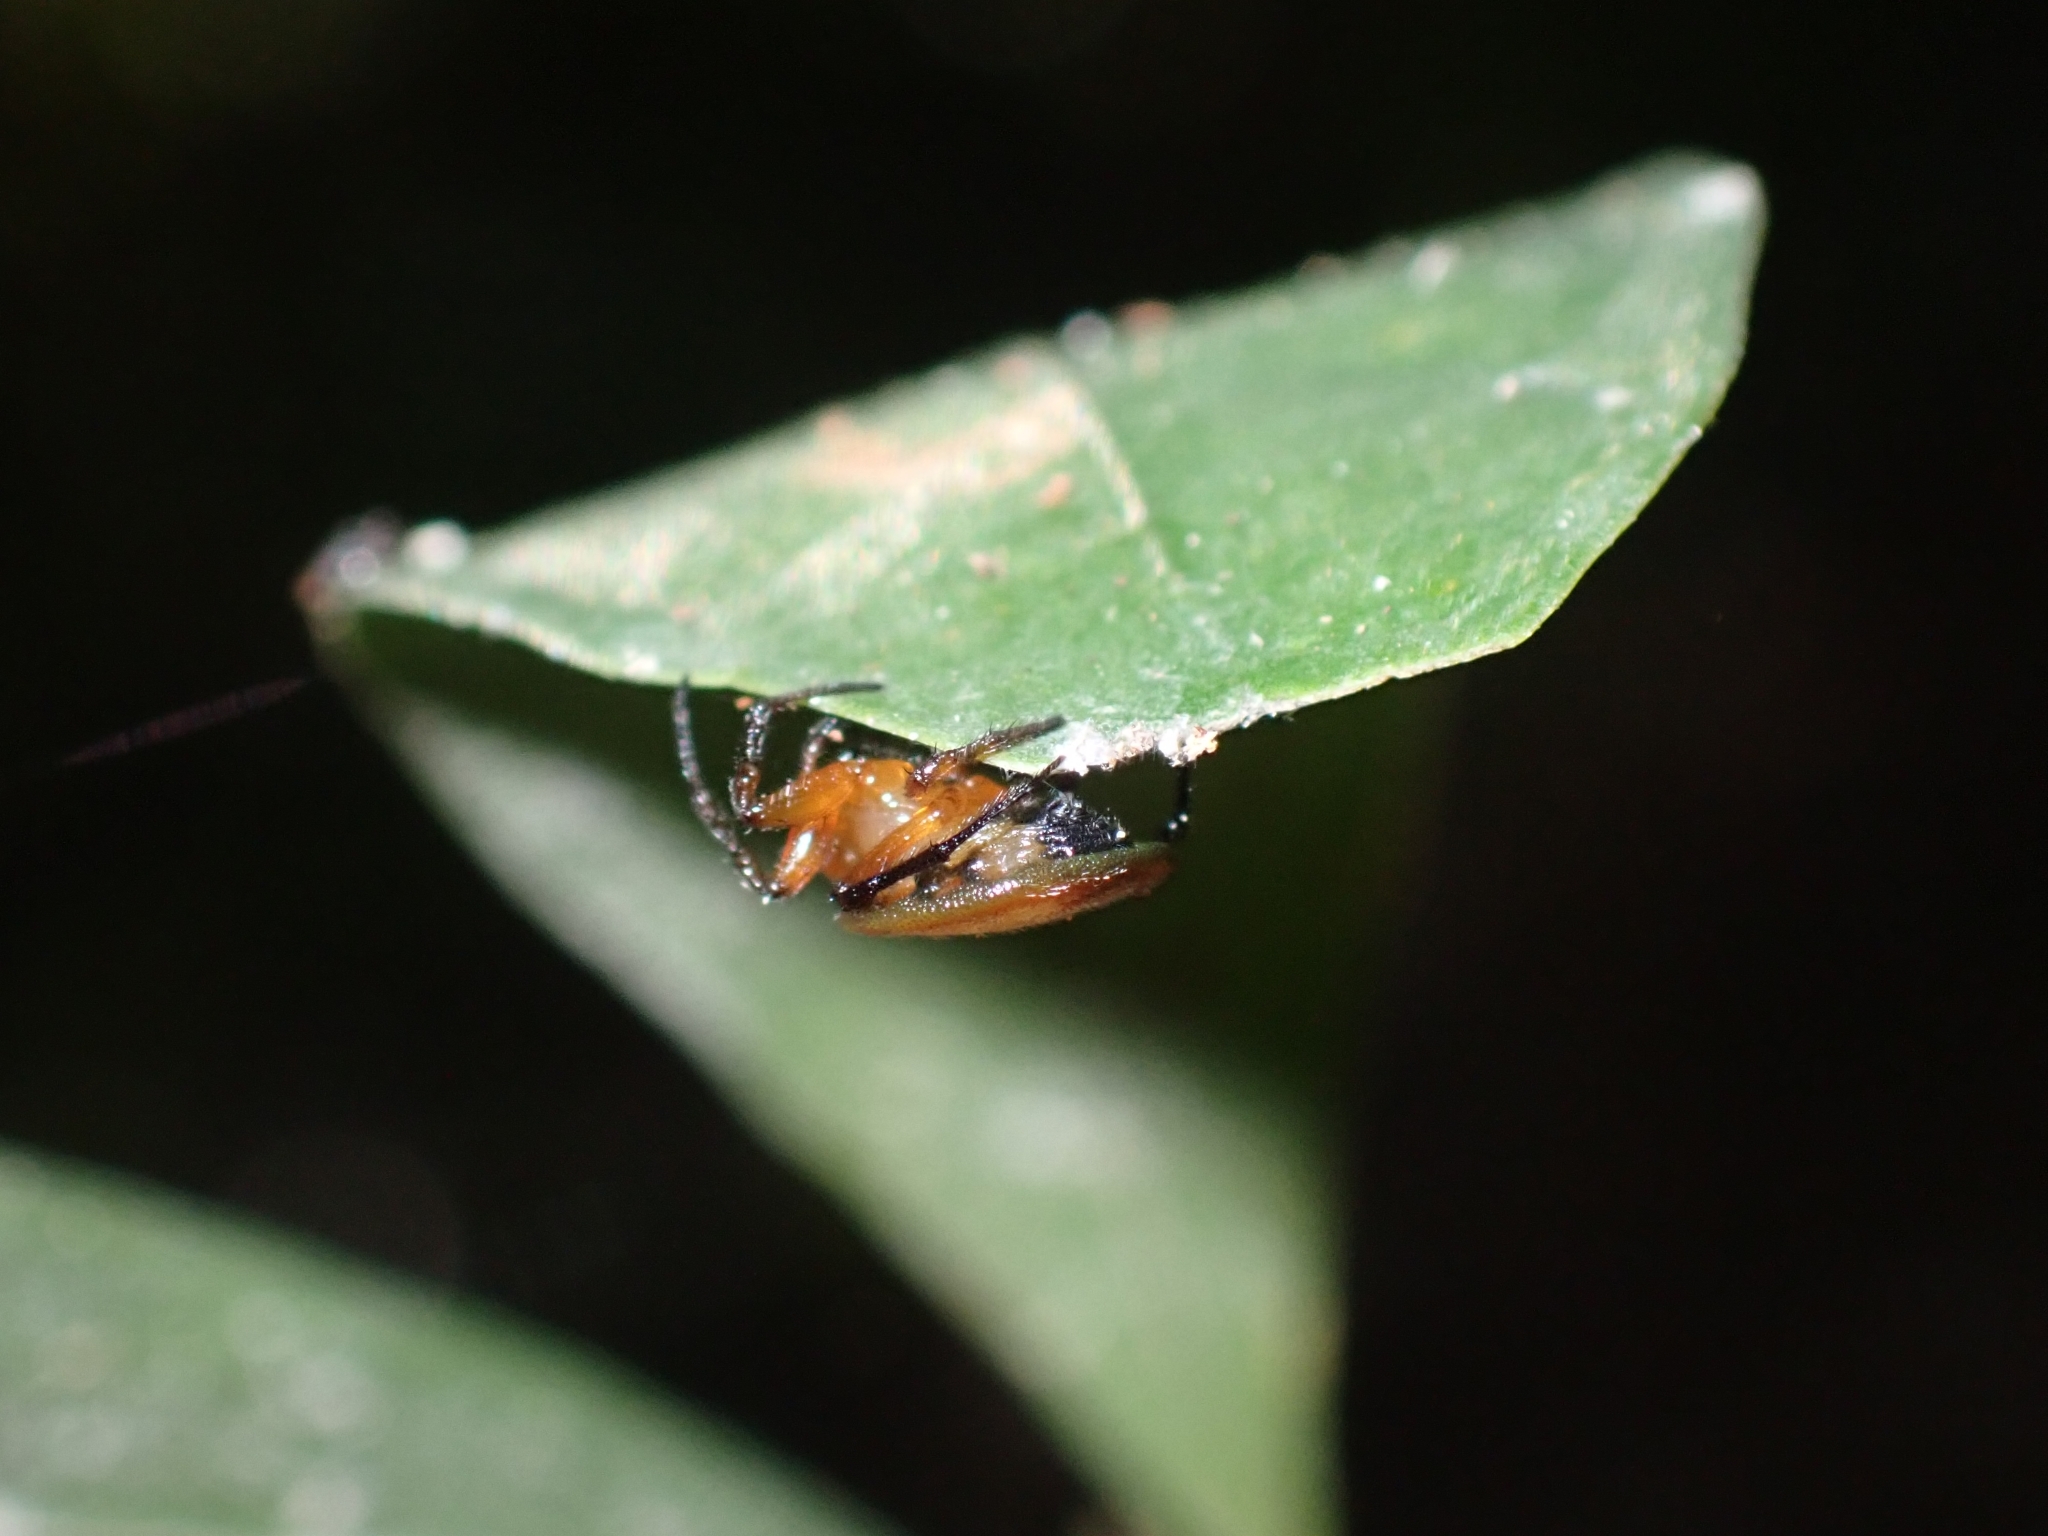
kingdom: Animalia
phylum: Arthropoda
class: Arachnida
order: Araneae
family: Araneidae
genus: Anepsion
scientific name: Anepsion depressum
